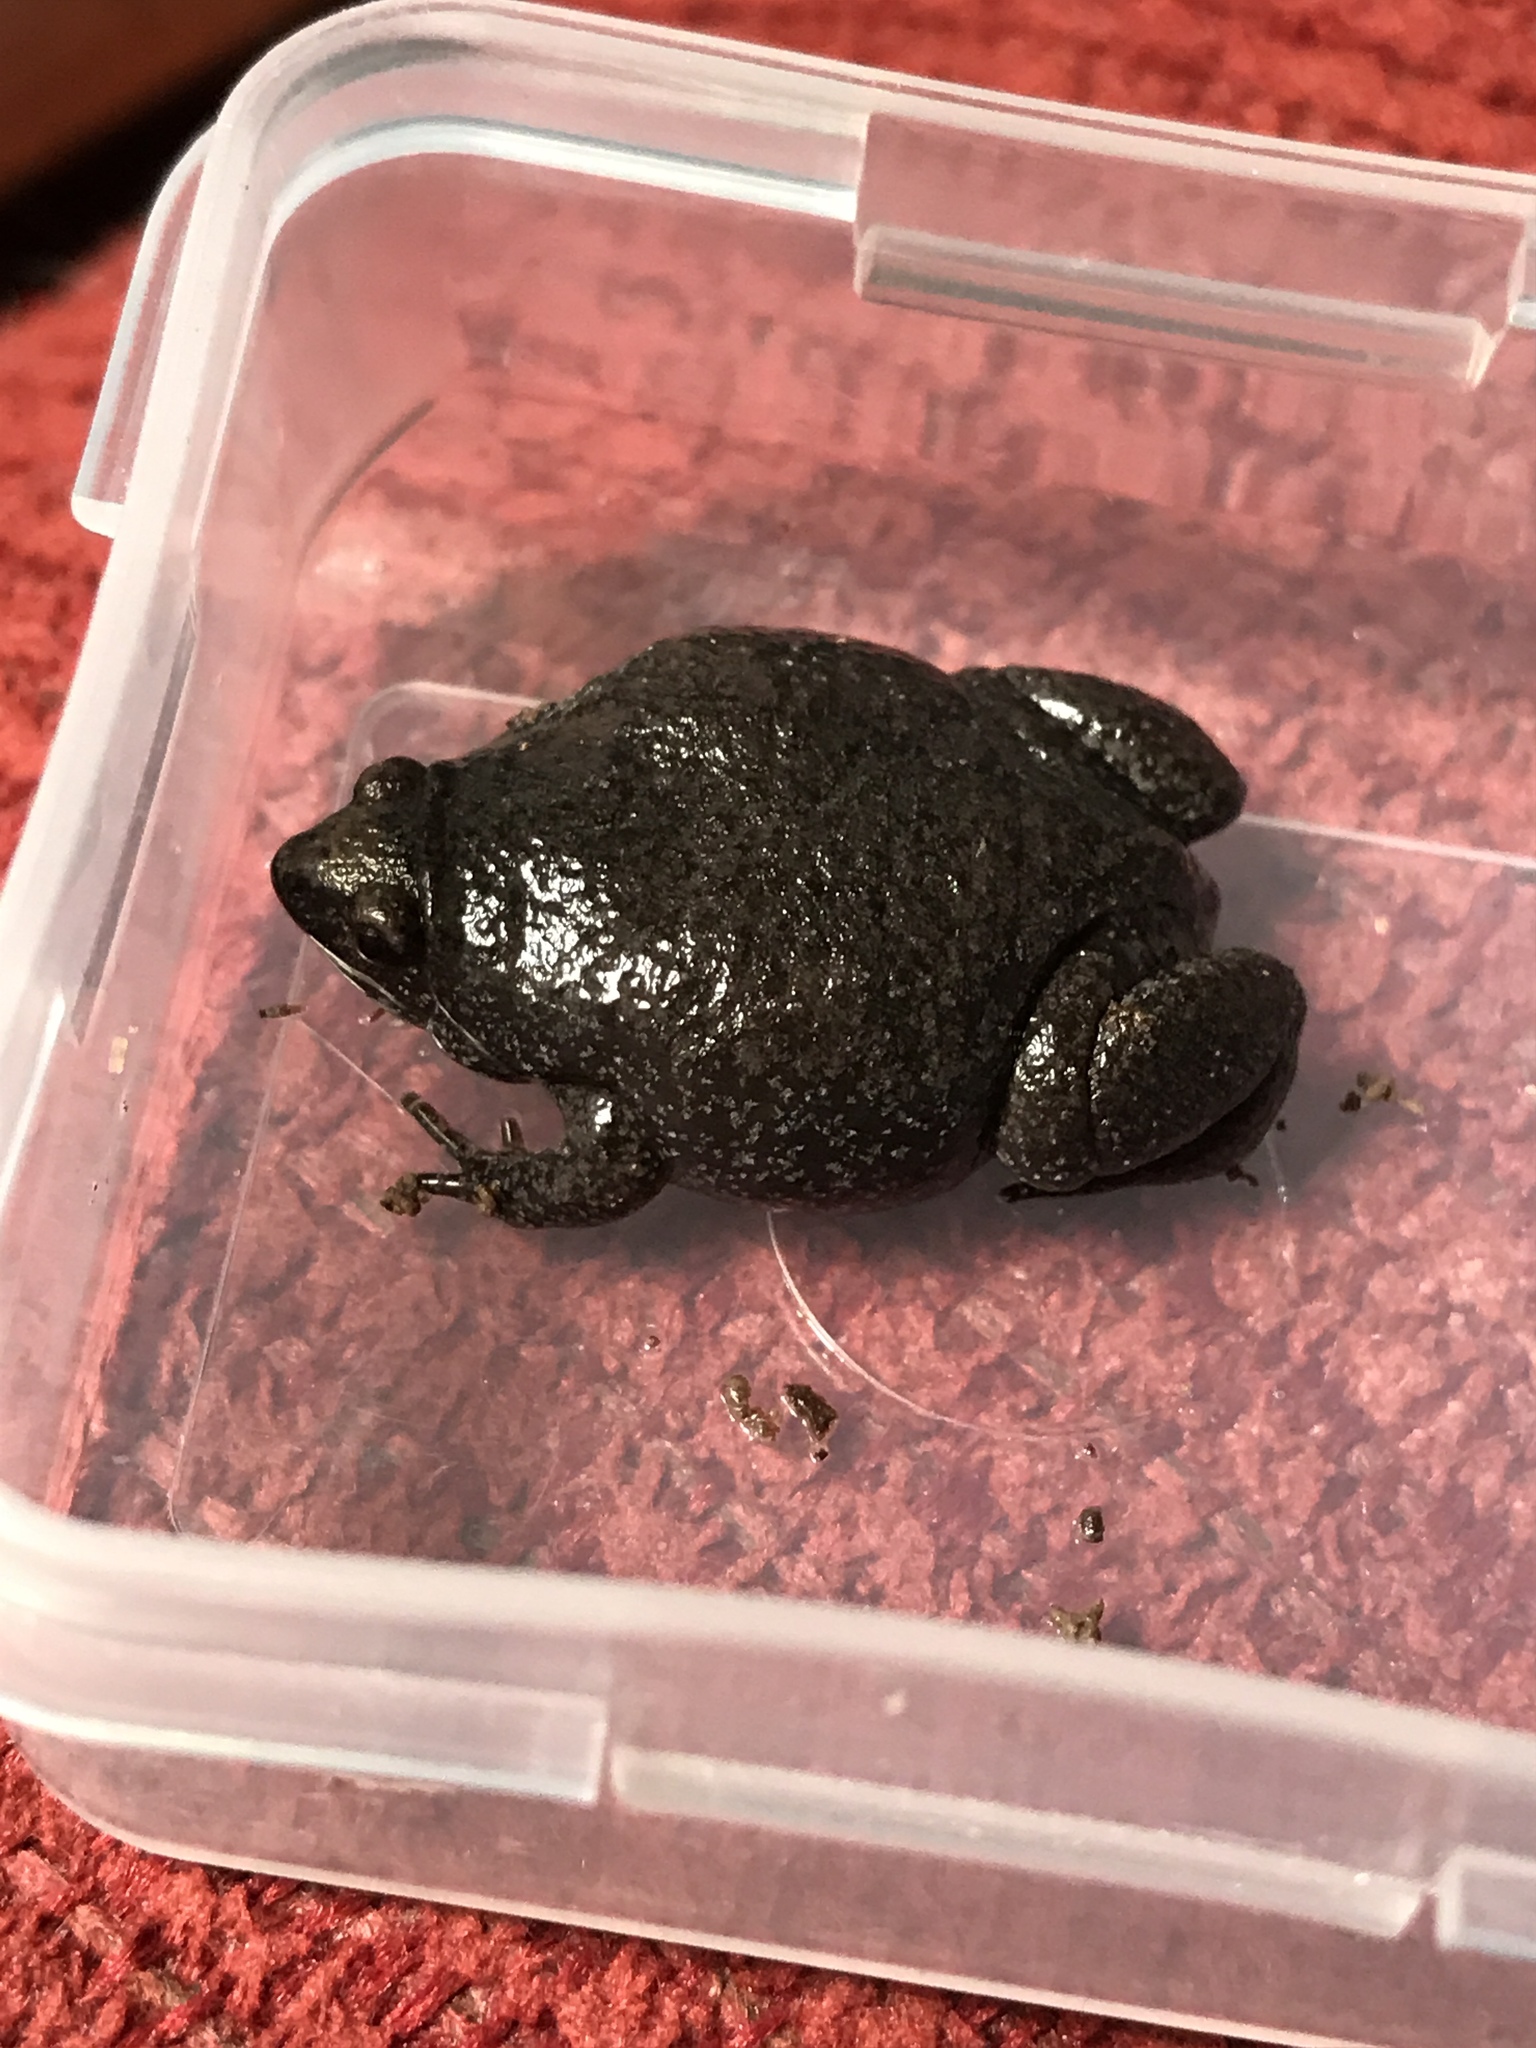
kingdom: Animalia
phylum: Chordata
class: Amphibia
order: Anura
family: Microhylidae
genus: Gastrophryne
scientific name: Gastrophryne carolinensis
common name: Eastern narrowmouth toad
